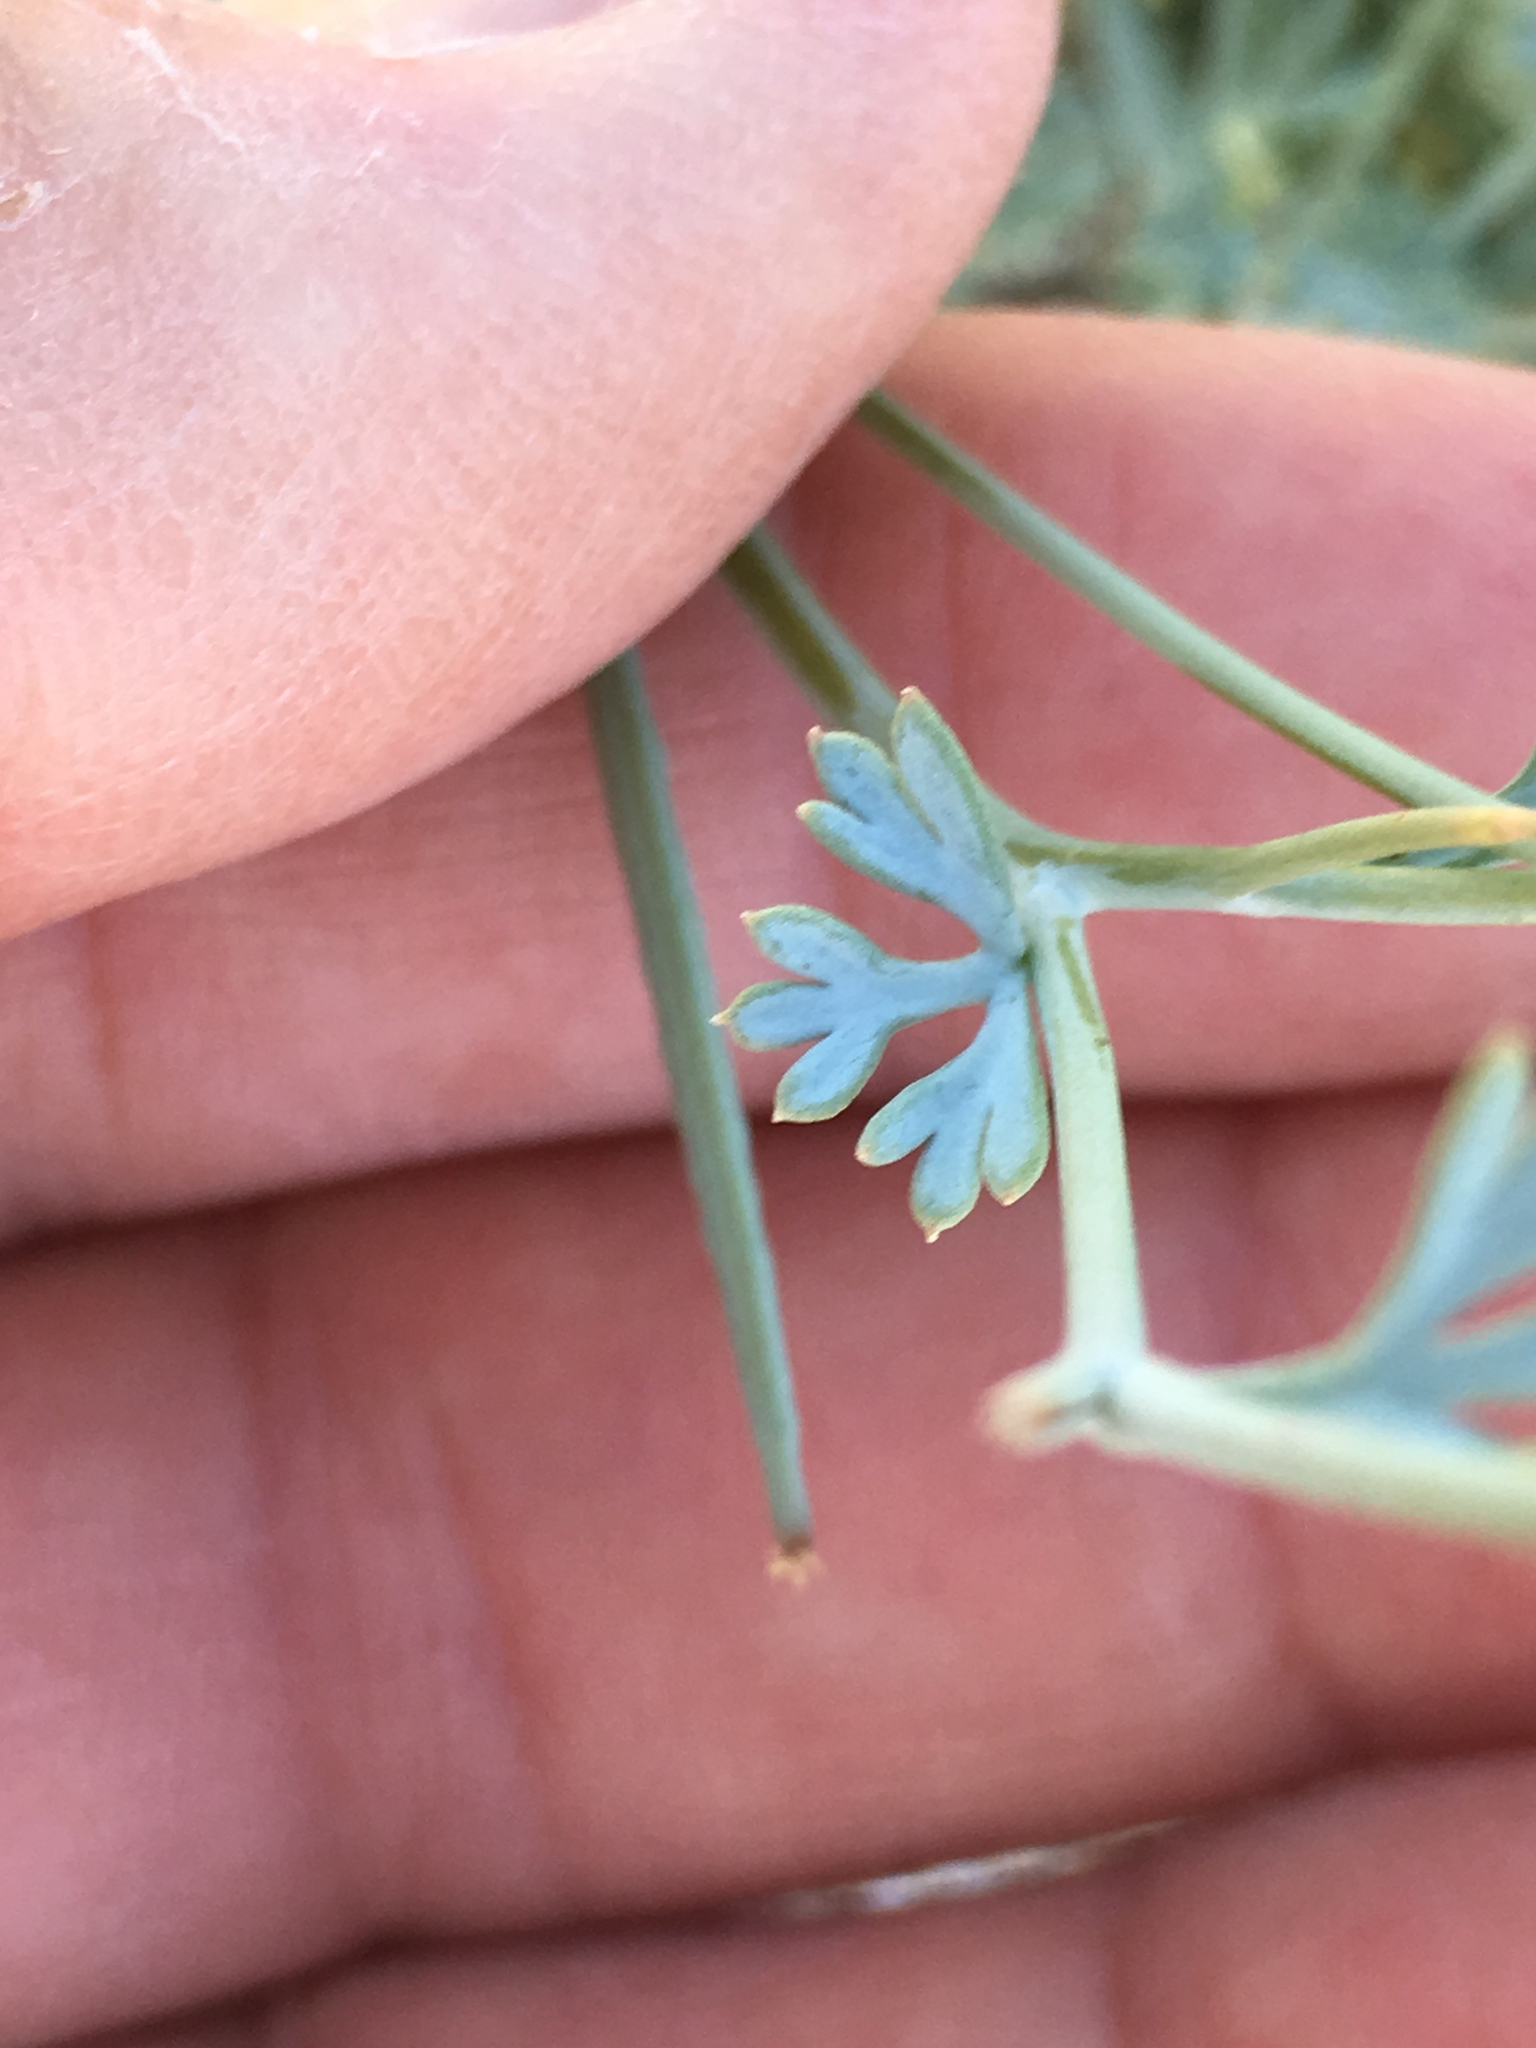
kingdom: Plantae
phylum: Tracheophyta
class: Magnoliopsida
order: Ranunculales
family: Papaveraceae
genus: Eschscholzia
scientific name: Eschscholzia minutiflora
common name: Small-flower california-poppy
